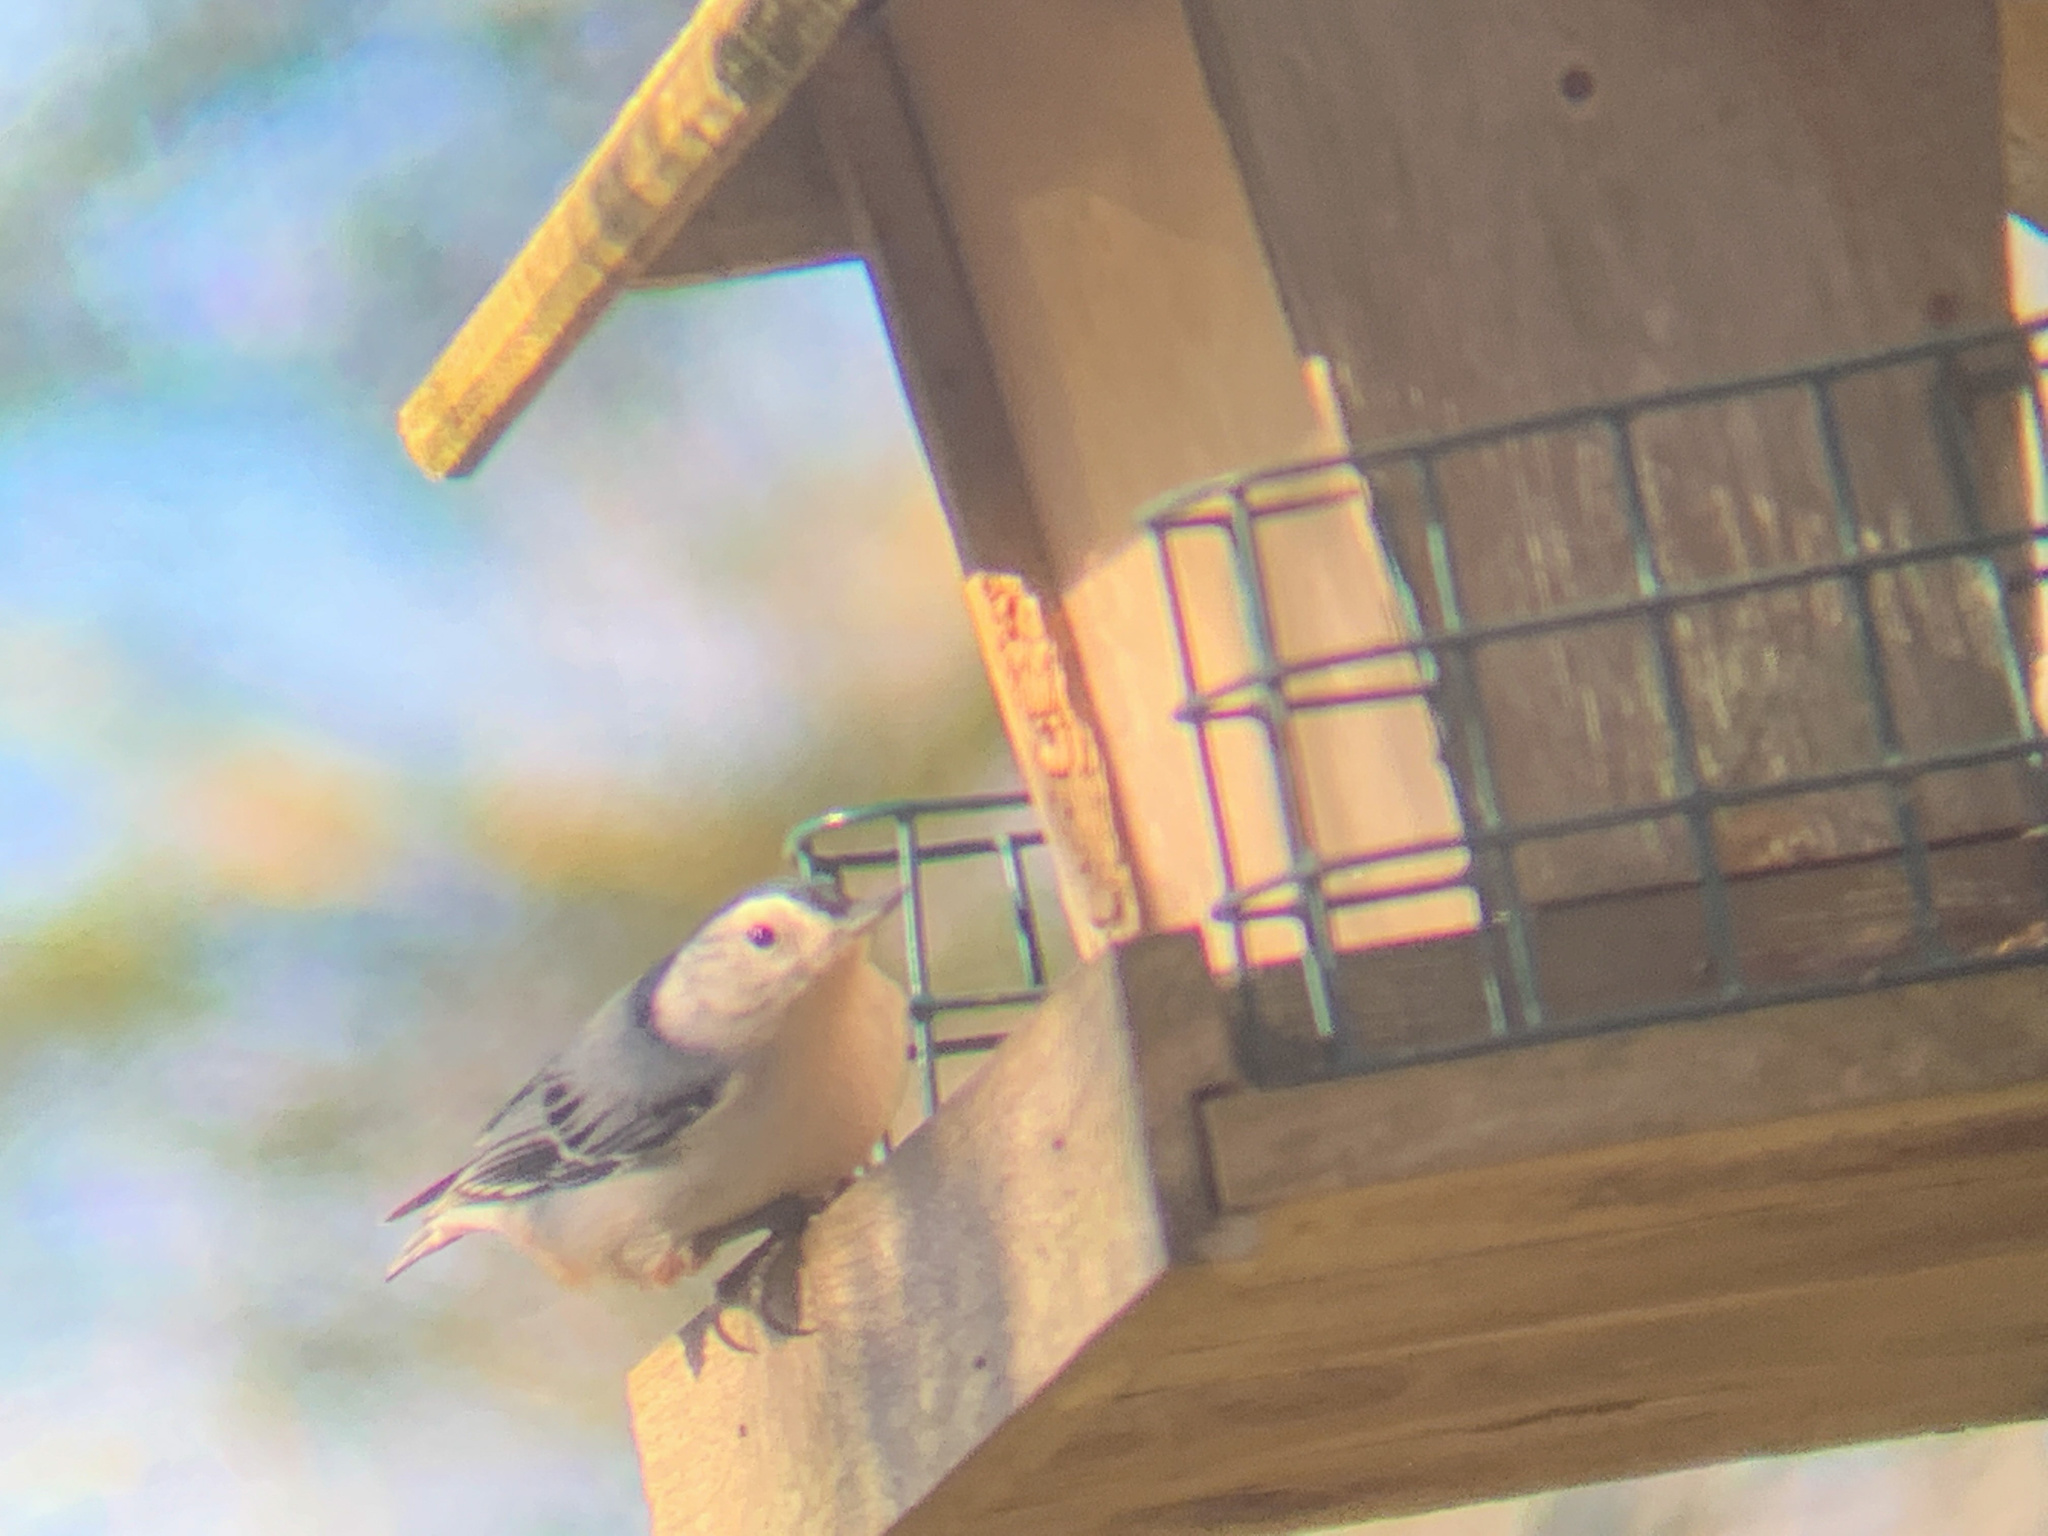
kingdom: Animalia
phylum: Chordata
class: Aves
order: Passeriformes
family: Sittidae
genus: Sitta
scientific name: Sitta carolinensis
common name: White-breasted nuthatch
